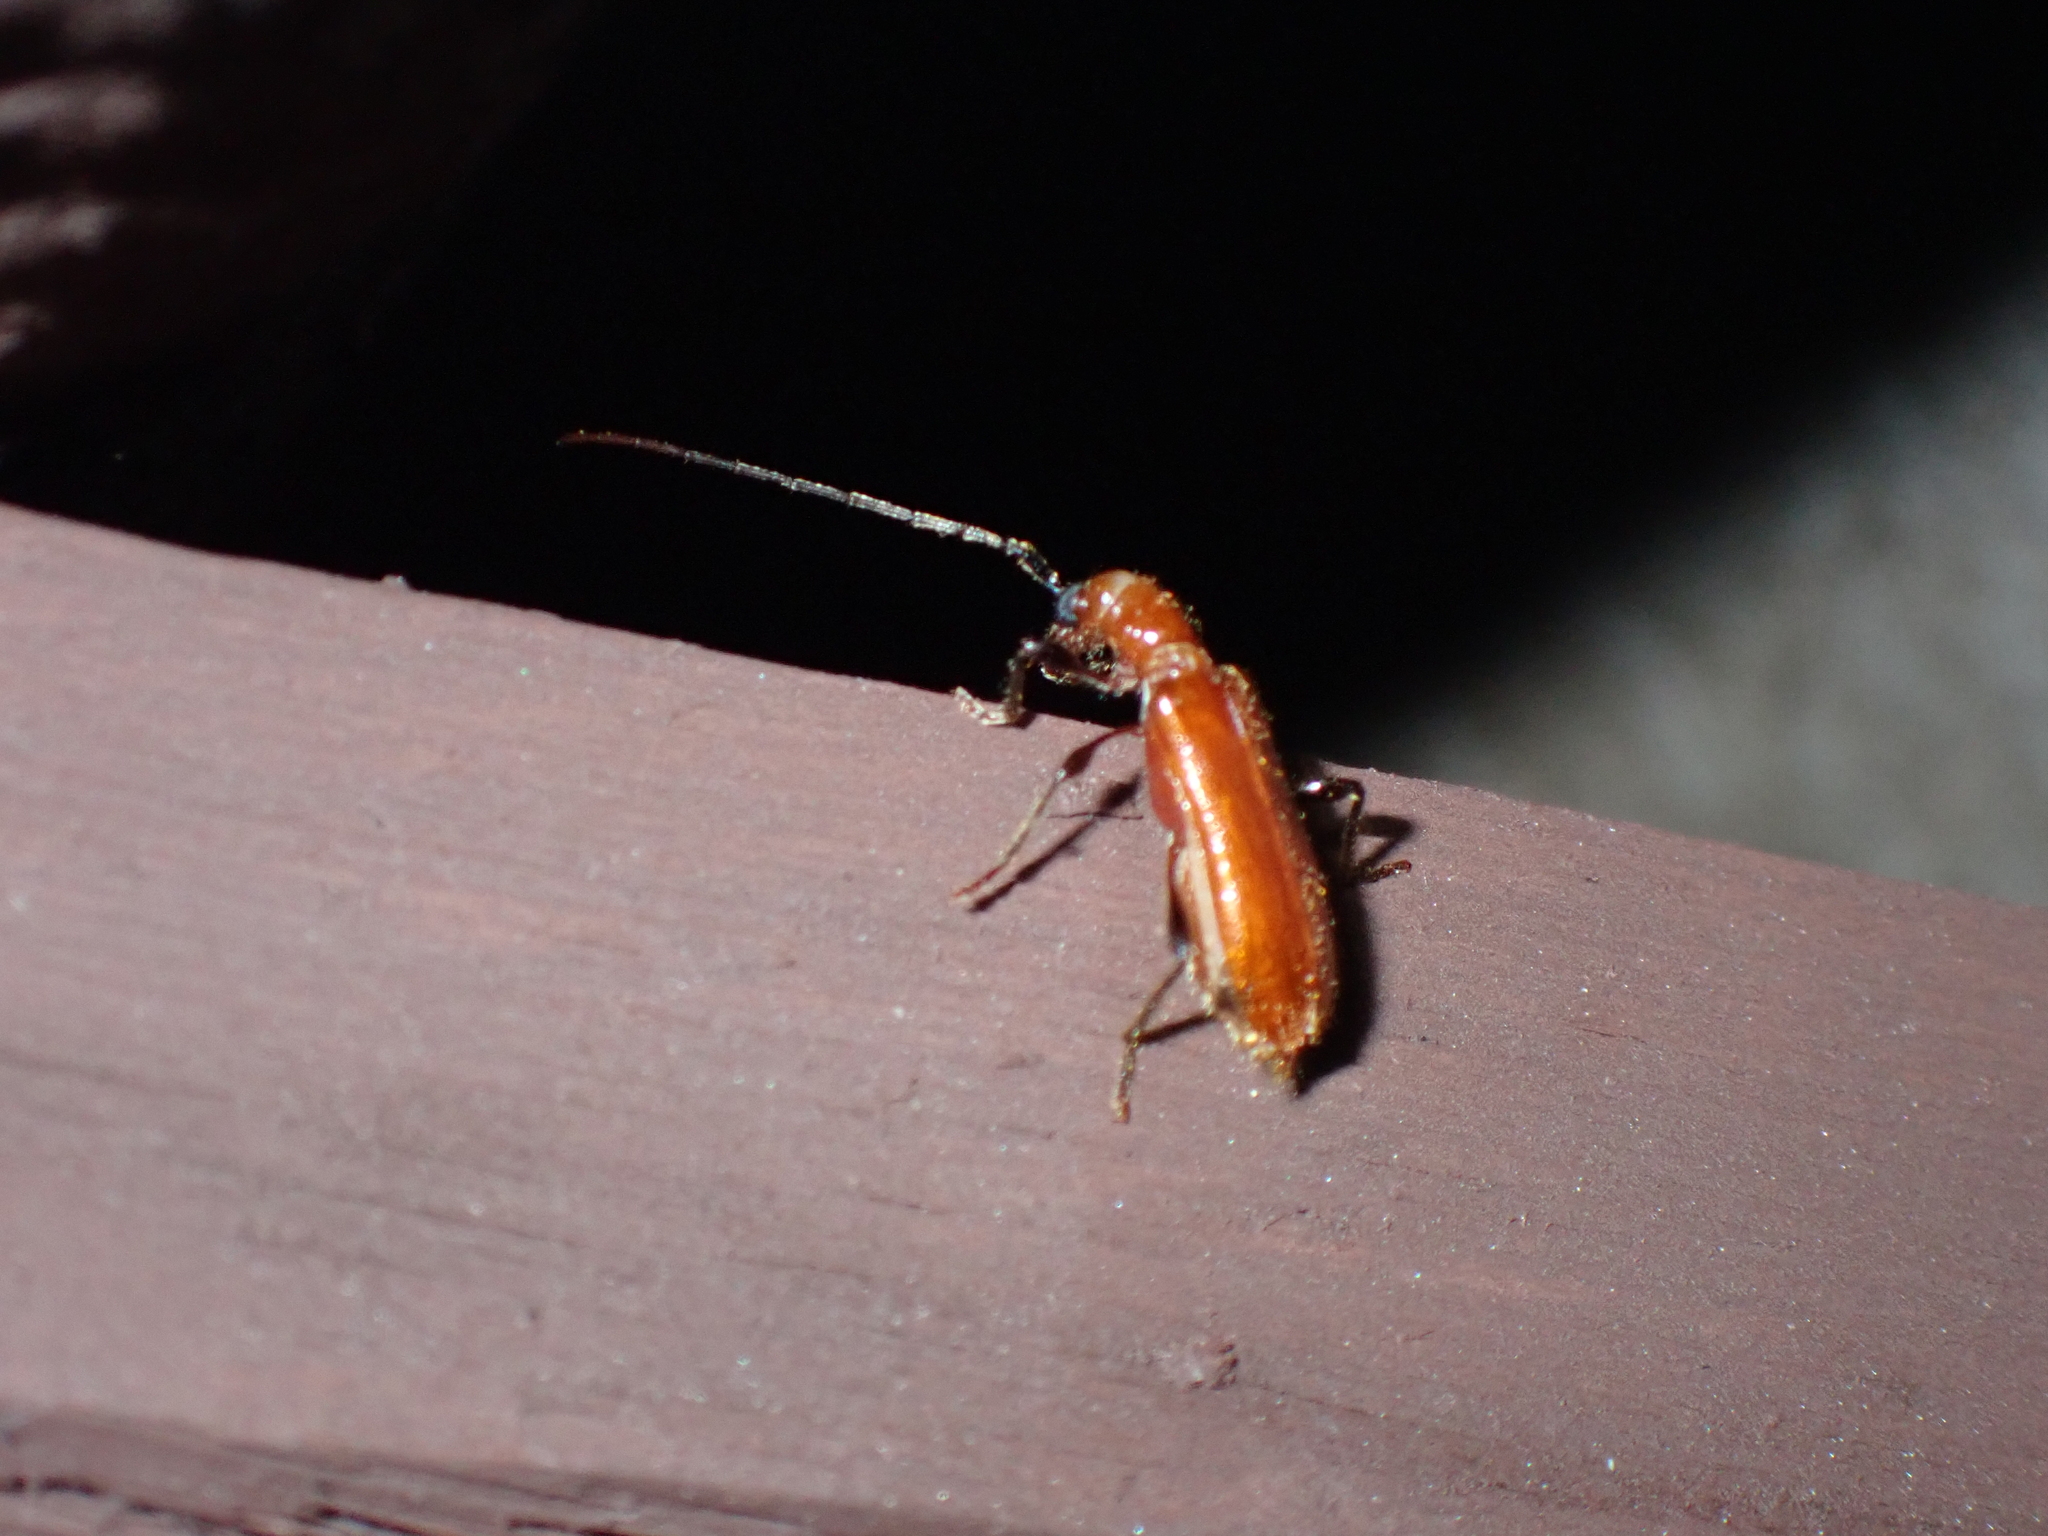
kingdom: Animalia
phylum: Arthropoda
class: Insecta
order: Coleoptera
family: Cerambycidae
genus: Obrium
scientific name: Obrium cantharinum
